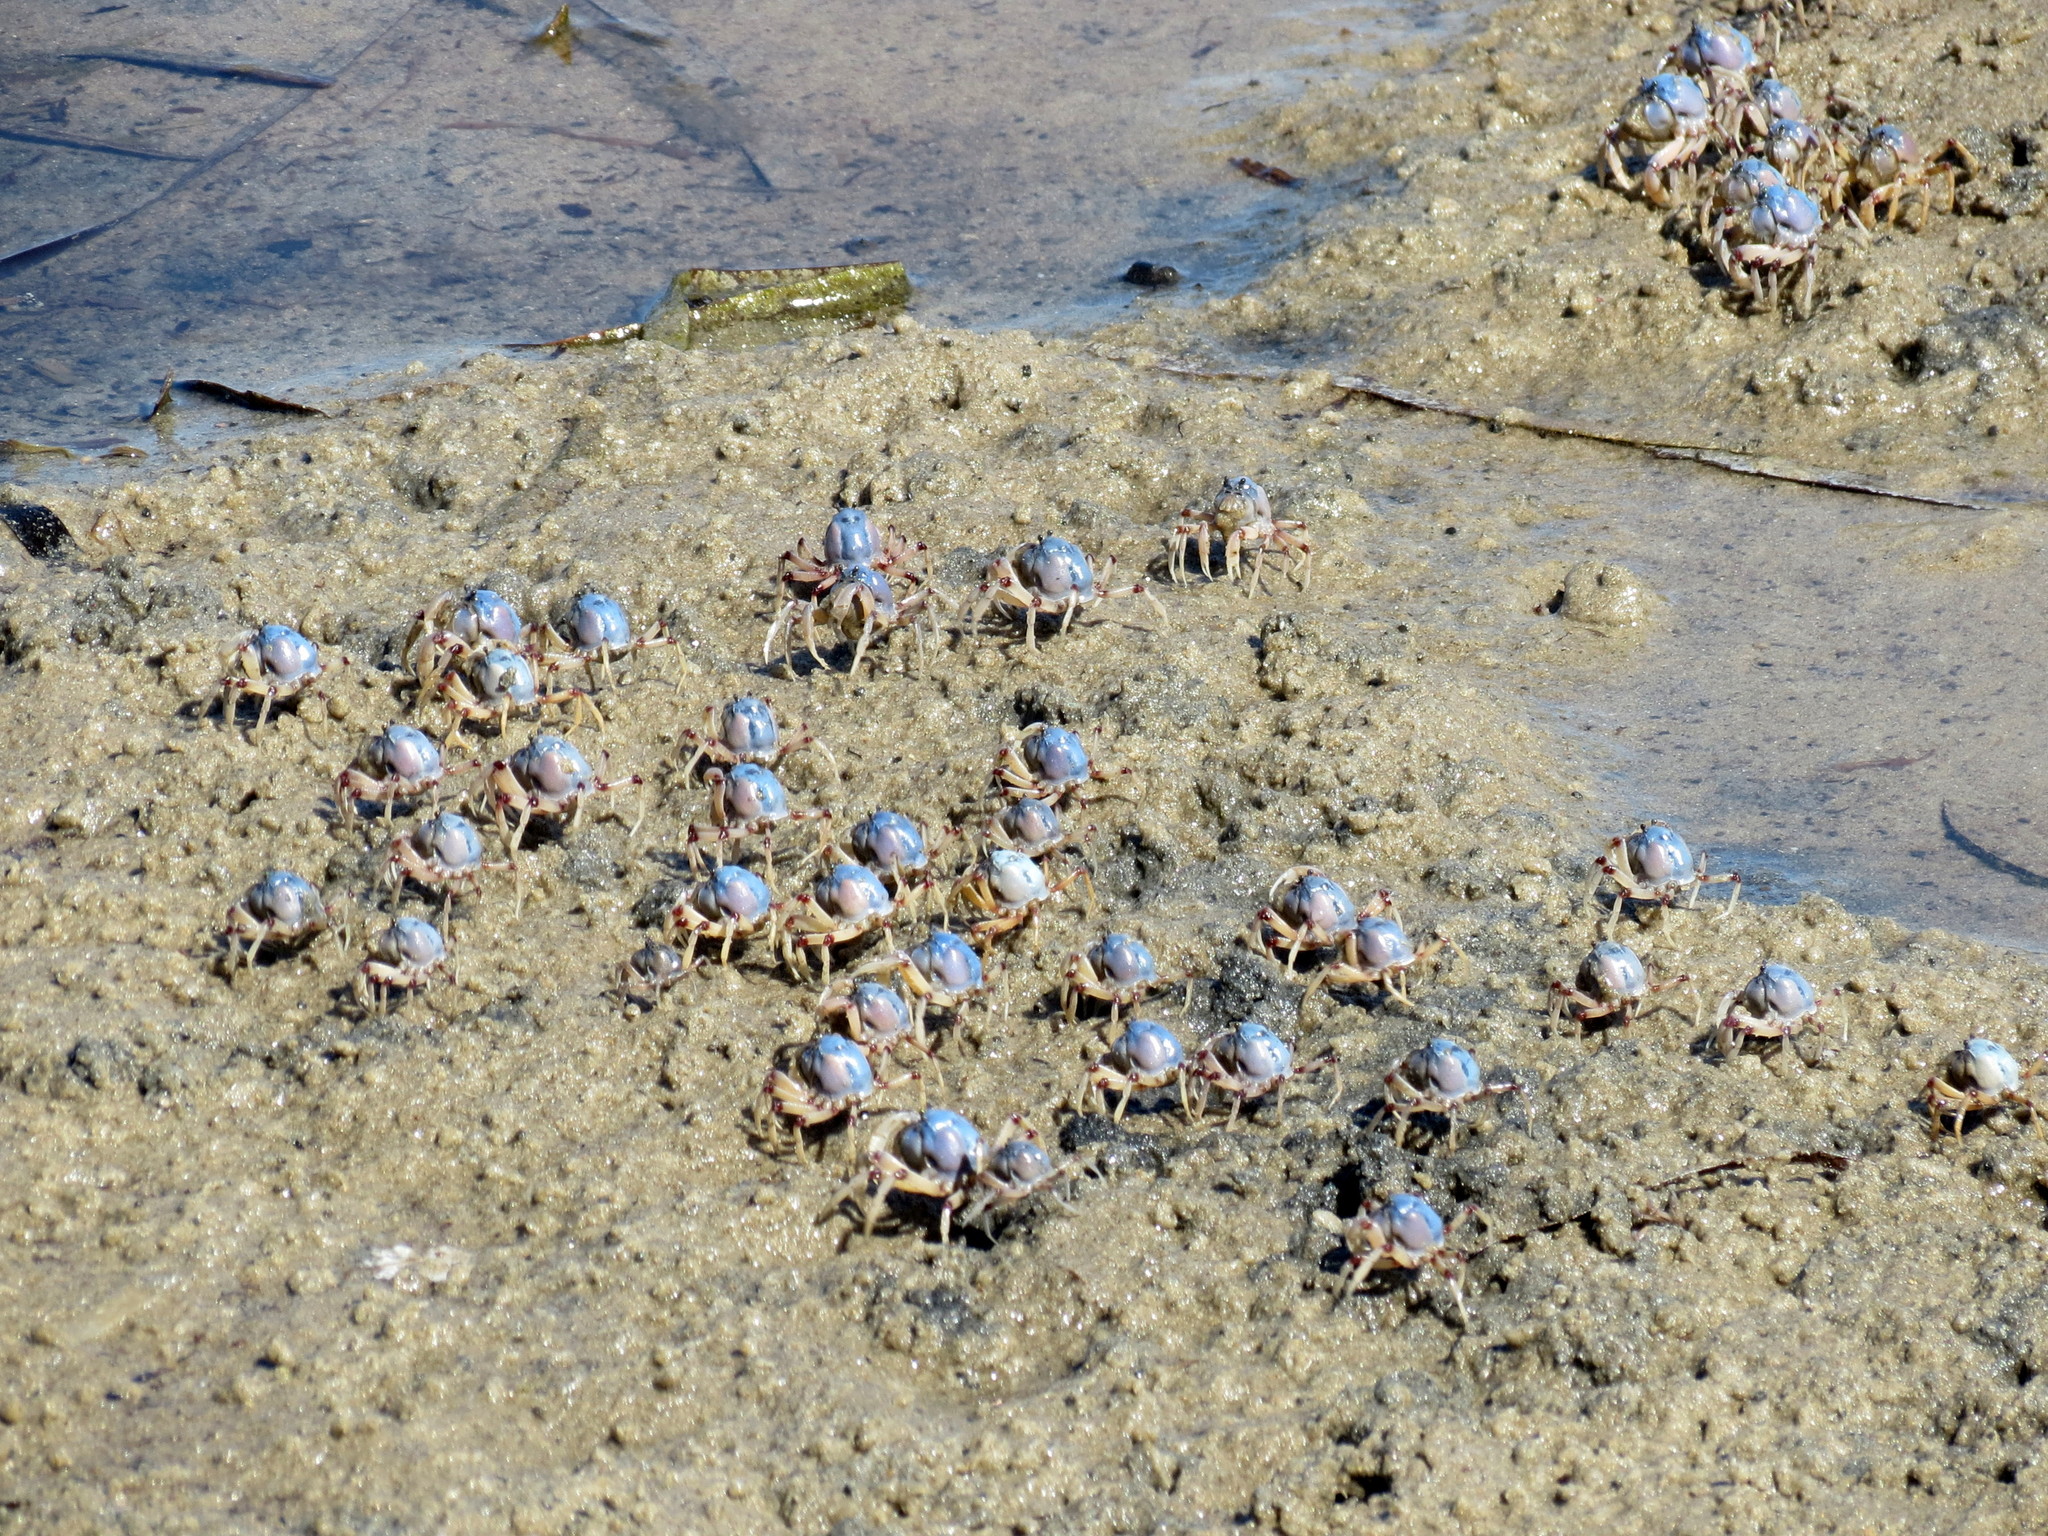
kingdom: Animalia
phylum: Arthropoda
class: Malacostraca
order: Decapoda
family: Mictyridae
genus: Mictyris
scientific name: Mictyris longicarpus
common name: Light-blue soldier crab
